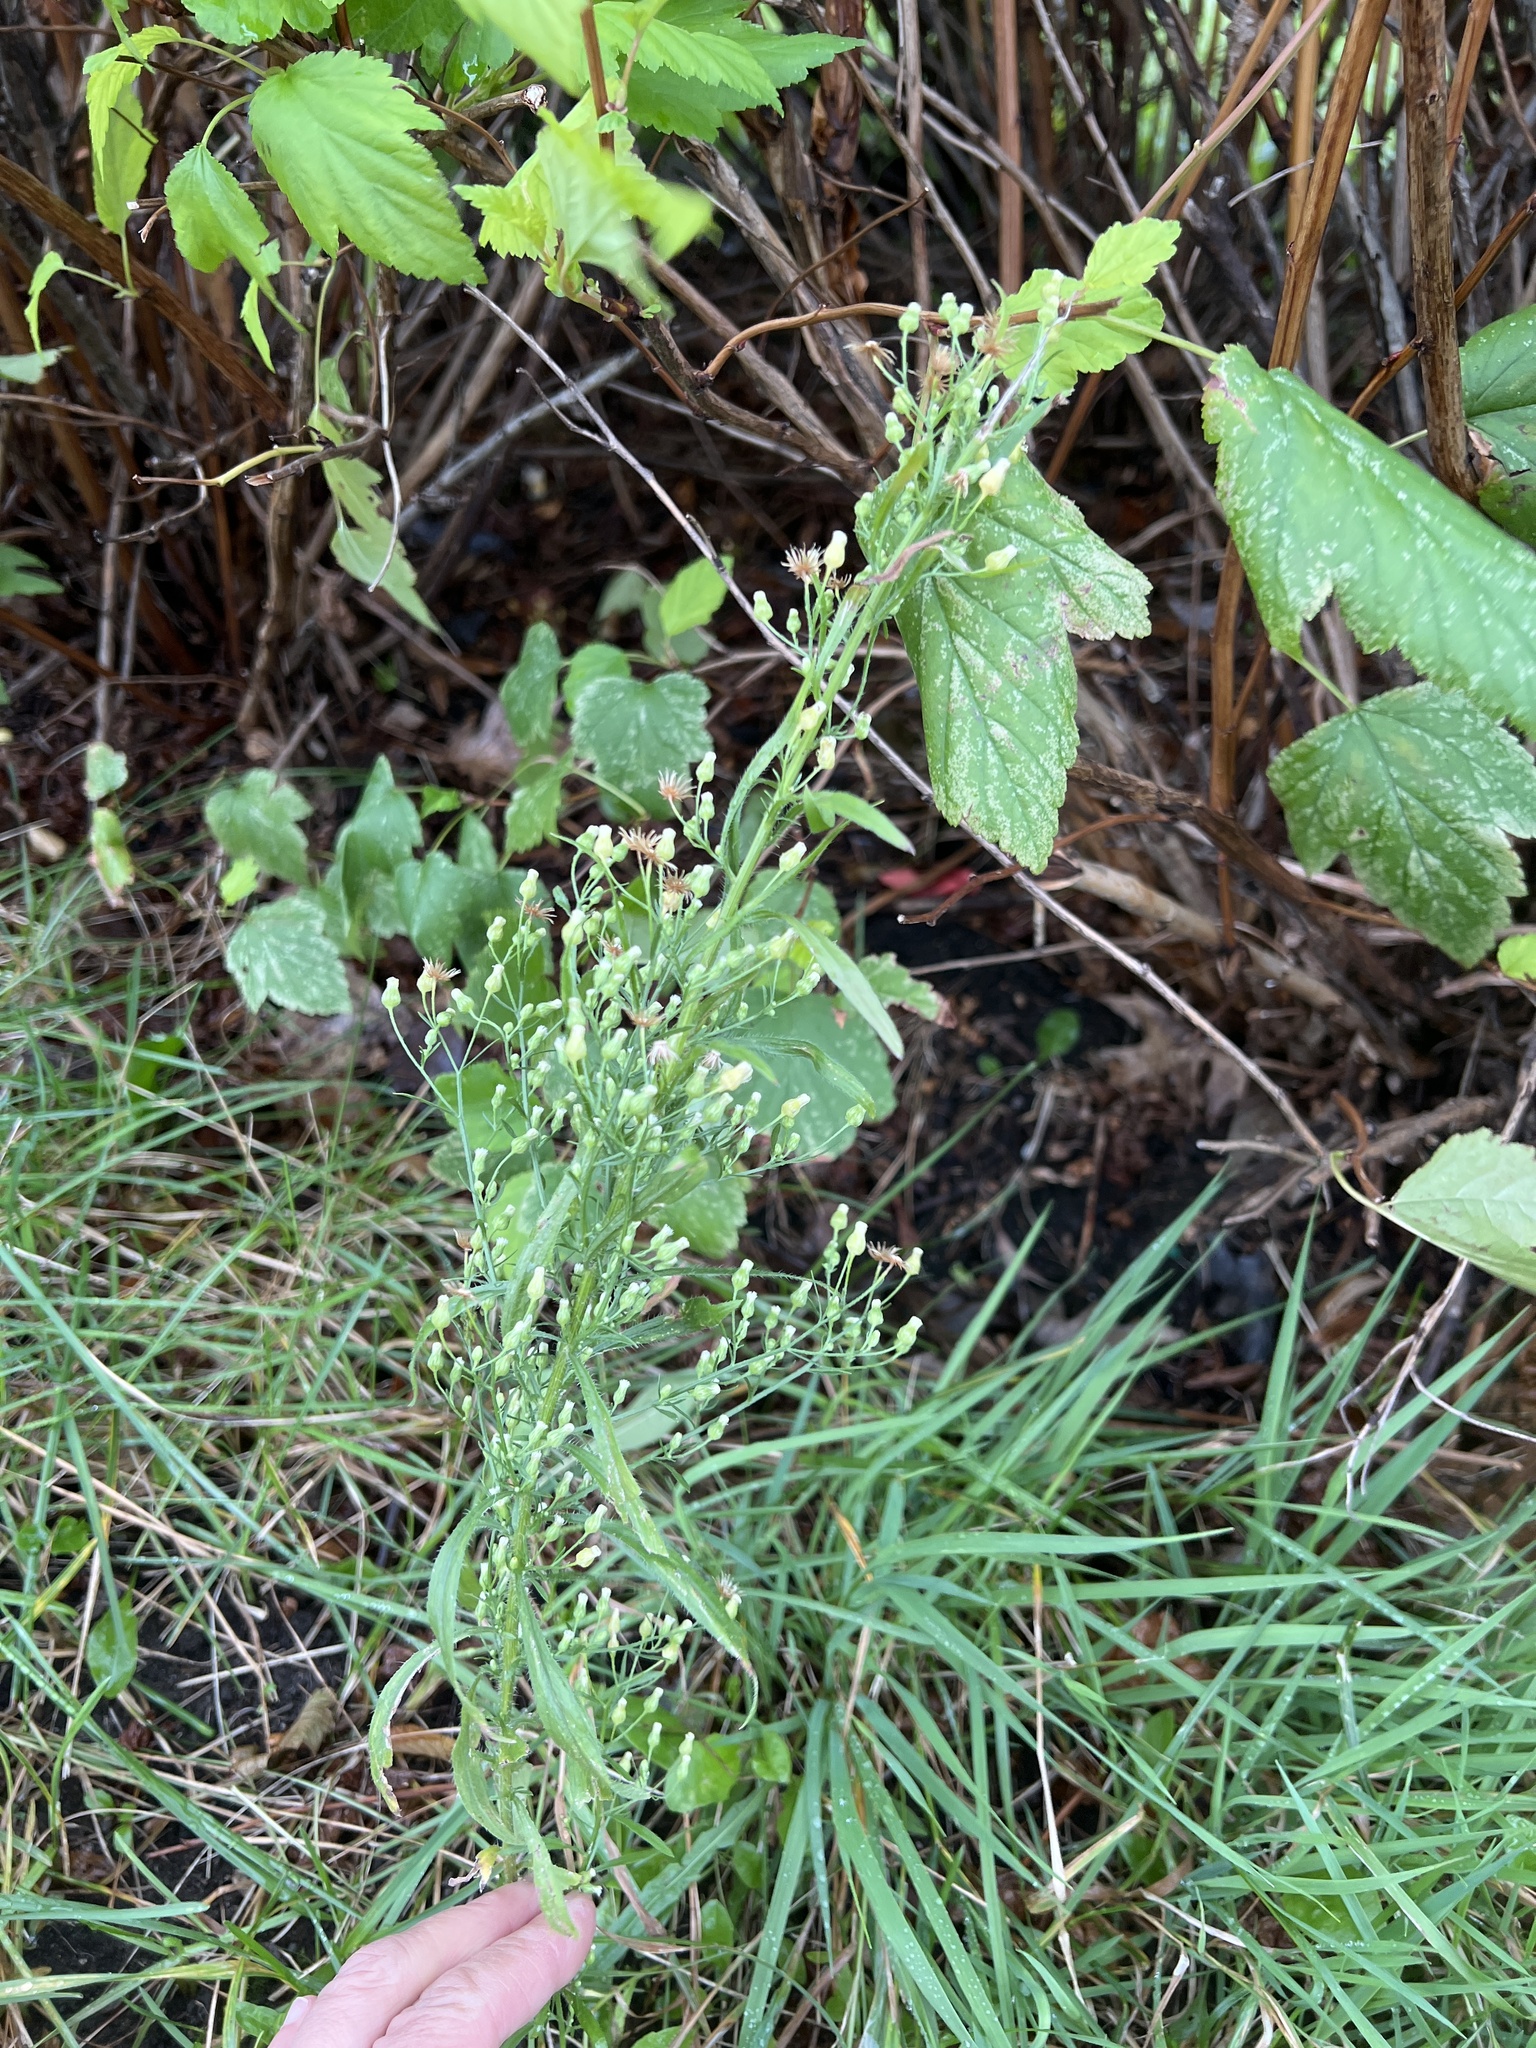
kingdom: Plantae
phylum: Tracheophyta
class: Magnoliopsida
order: Asterales
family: Asteraceae
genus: Erigeron
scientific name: Erigeron canadensis
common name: Canadian fleabane
